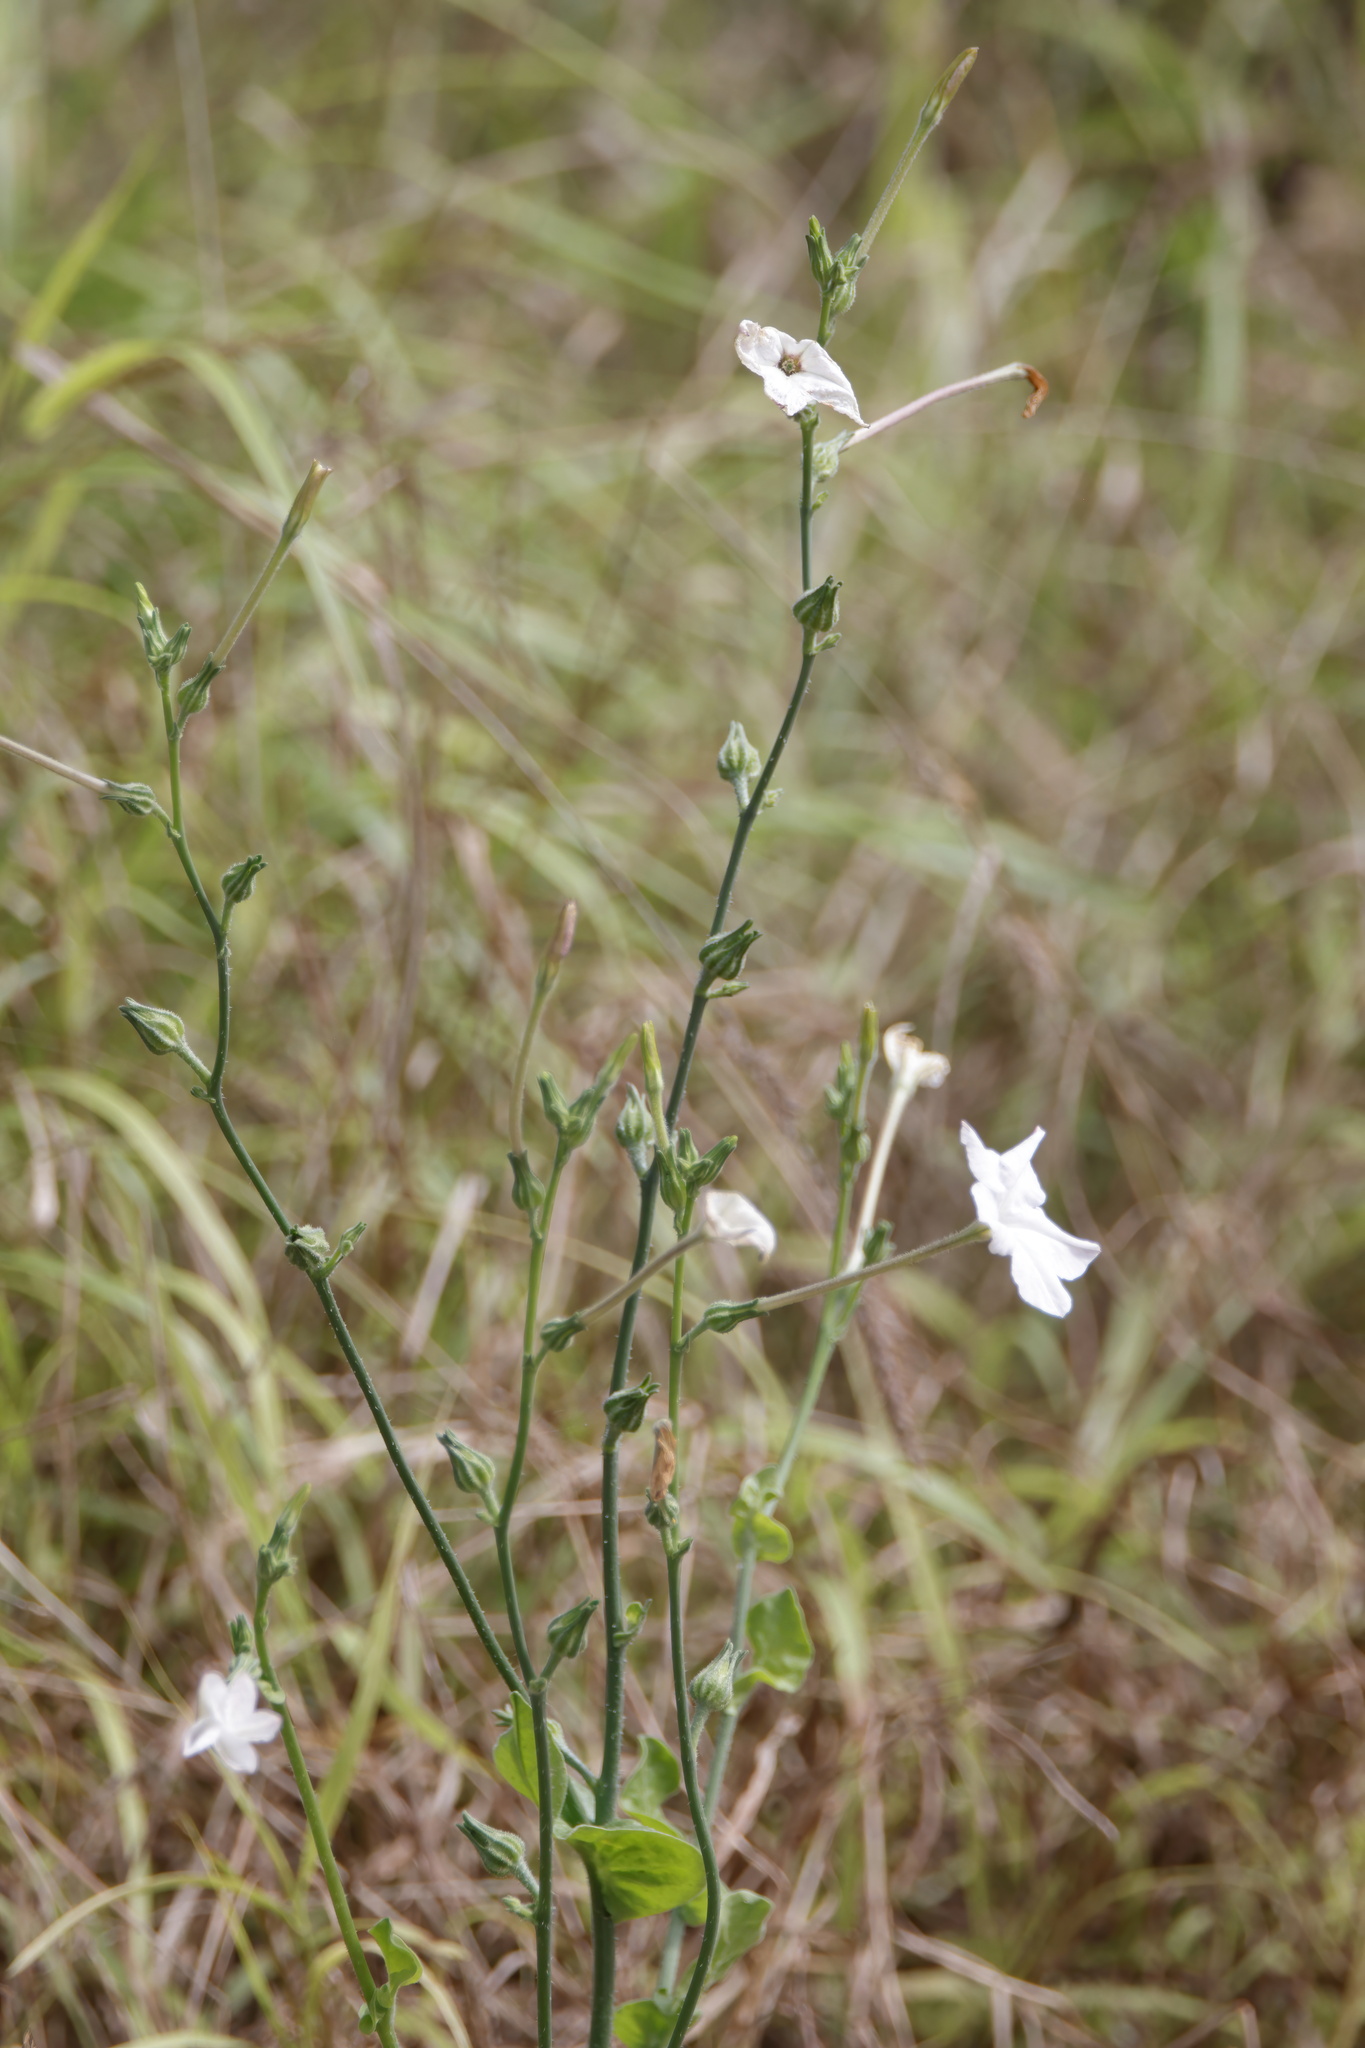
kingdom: Plantae
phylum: Tracheophyta
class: Magnoliopsida
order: Solanales
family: Solanaceae
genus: Nicotiana
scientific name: Nicotiana repanda
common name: Fiddle-leaf tobacco
